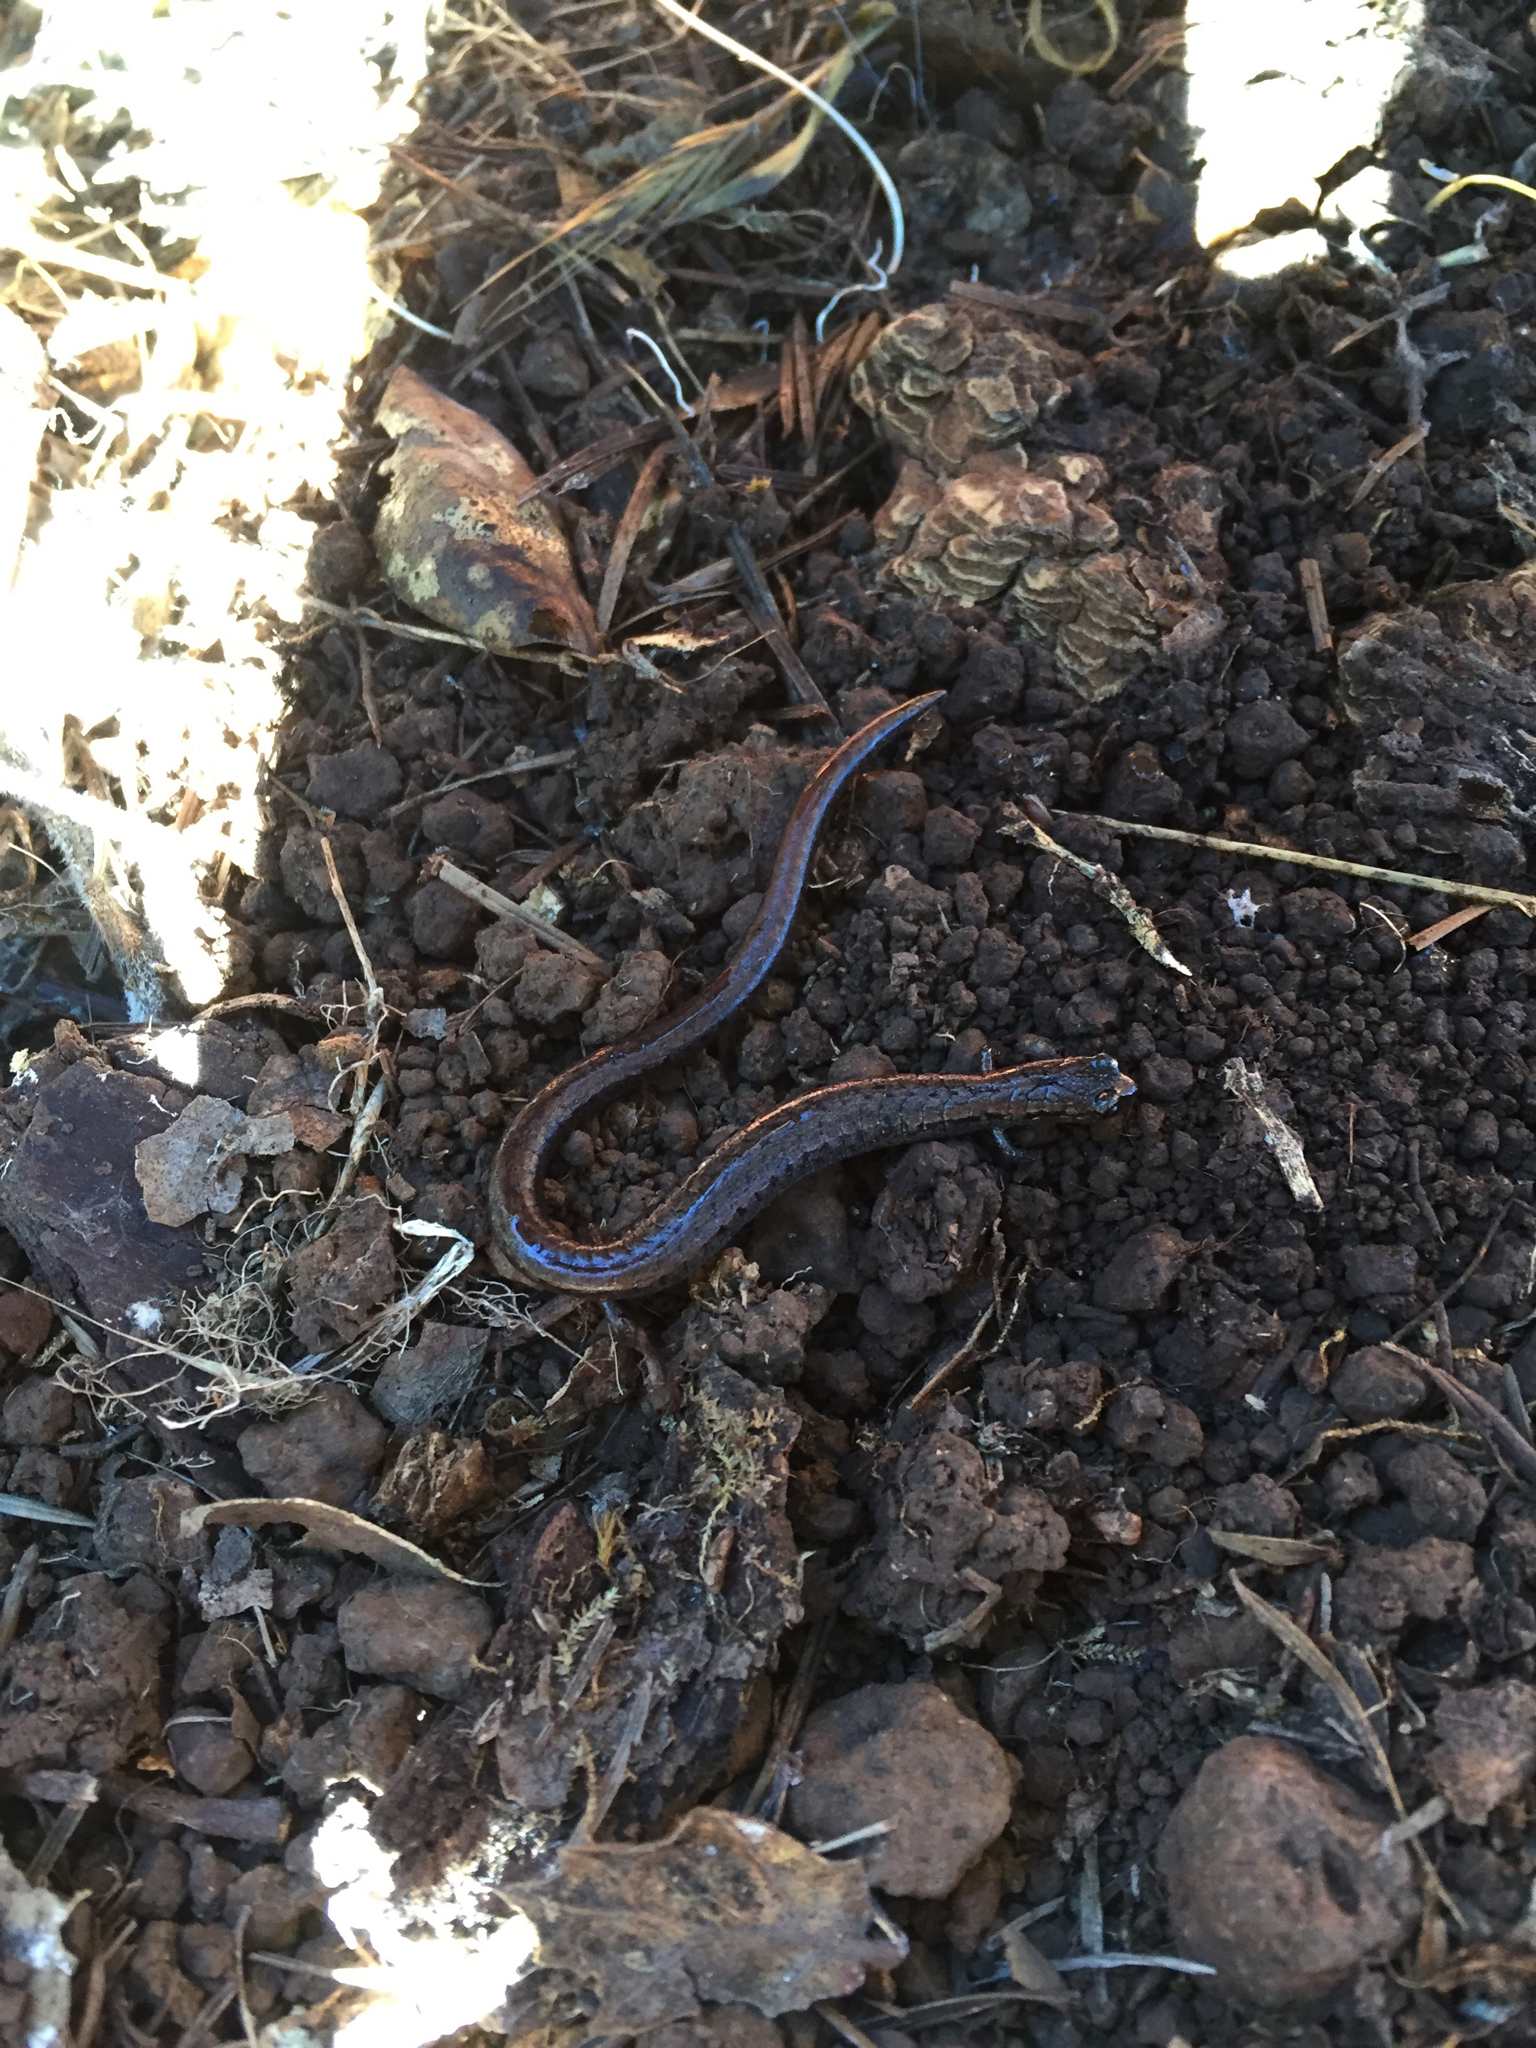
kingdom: Animalia
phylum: Chordata
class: Amphibia
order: Caudata
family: Plethodontidae
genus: Batrachoseps
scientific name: Batrachoseps attenuatus
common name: California slender salamander
